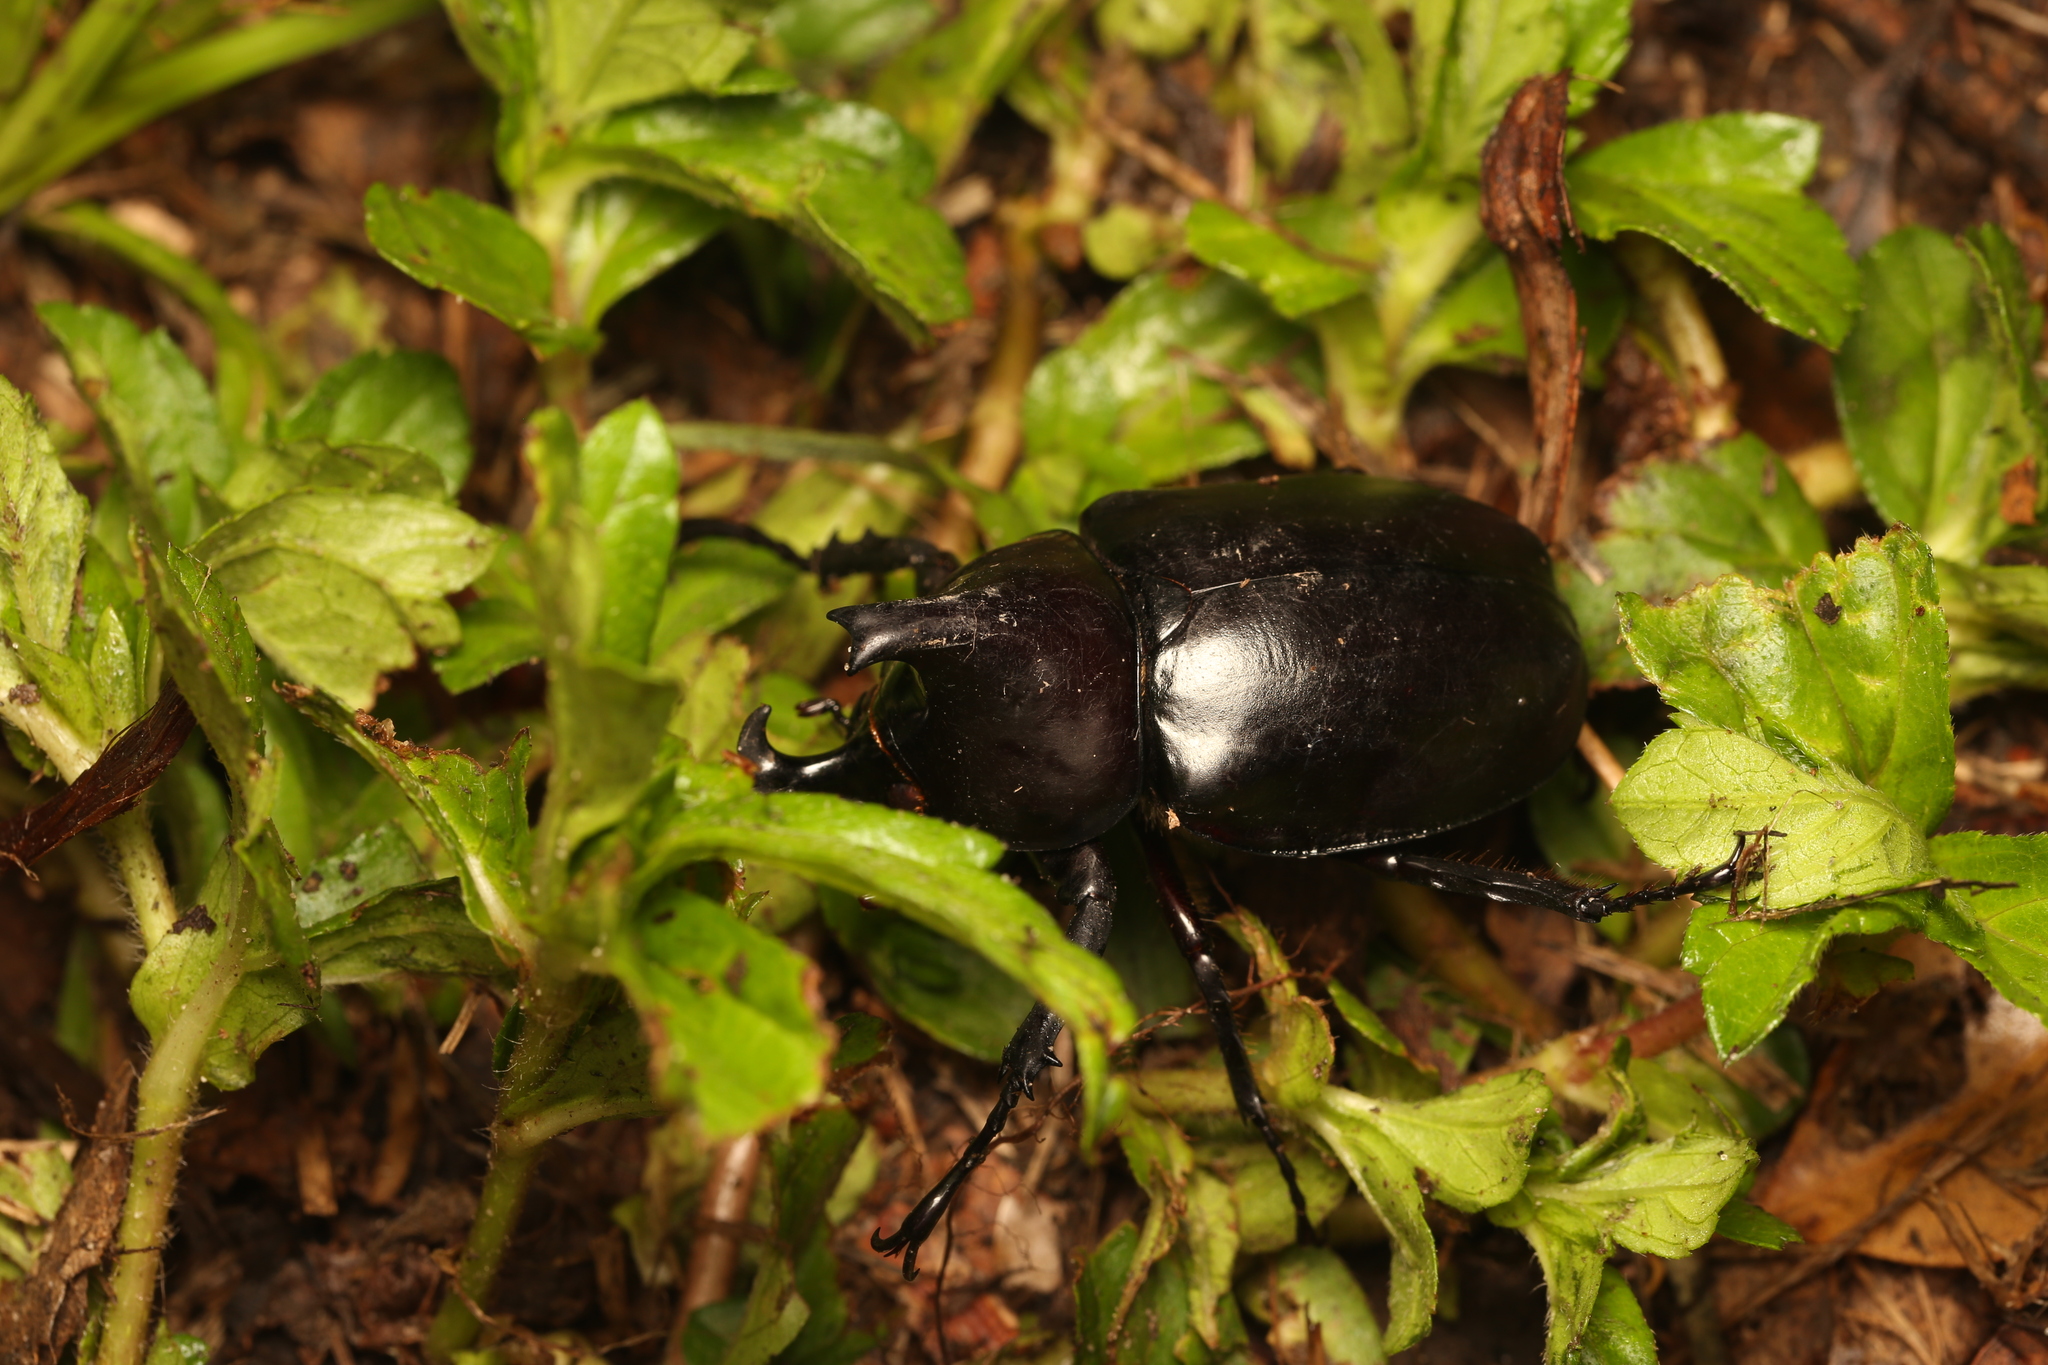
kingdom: Animalia
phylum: Arthropoda
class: Insecta
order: Coleoptera
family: Scarabaeidae
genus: Xylotrupes
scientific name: Xylotrupes australicus
